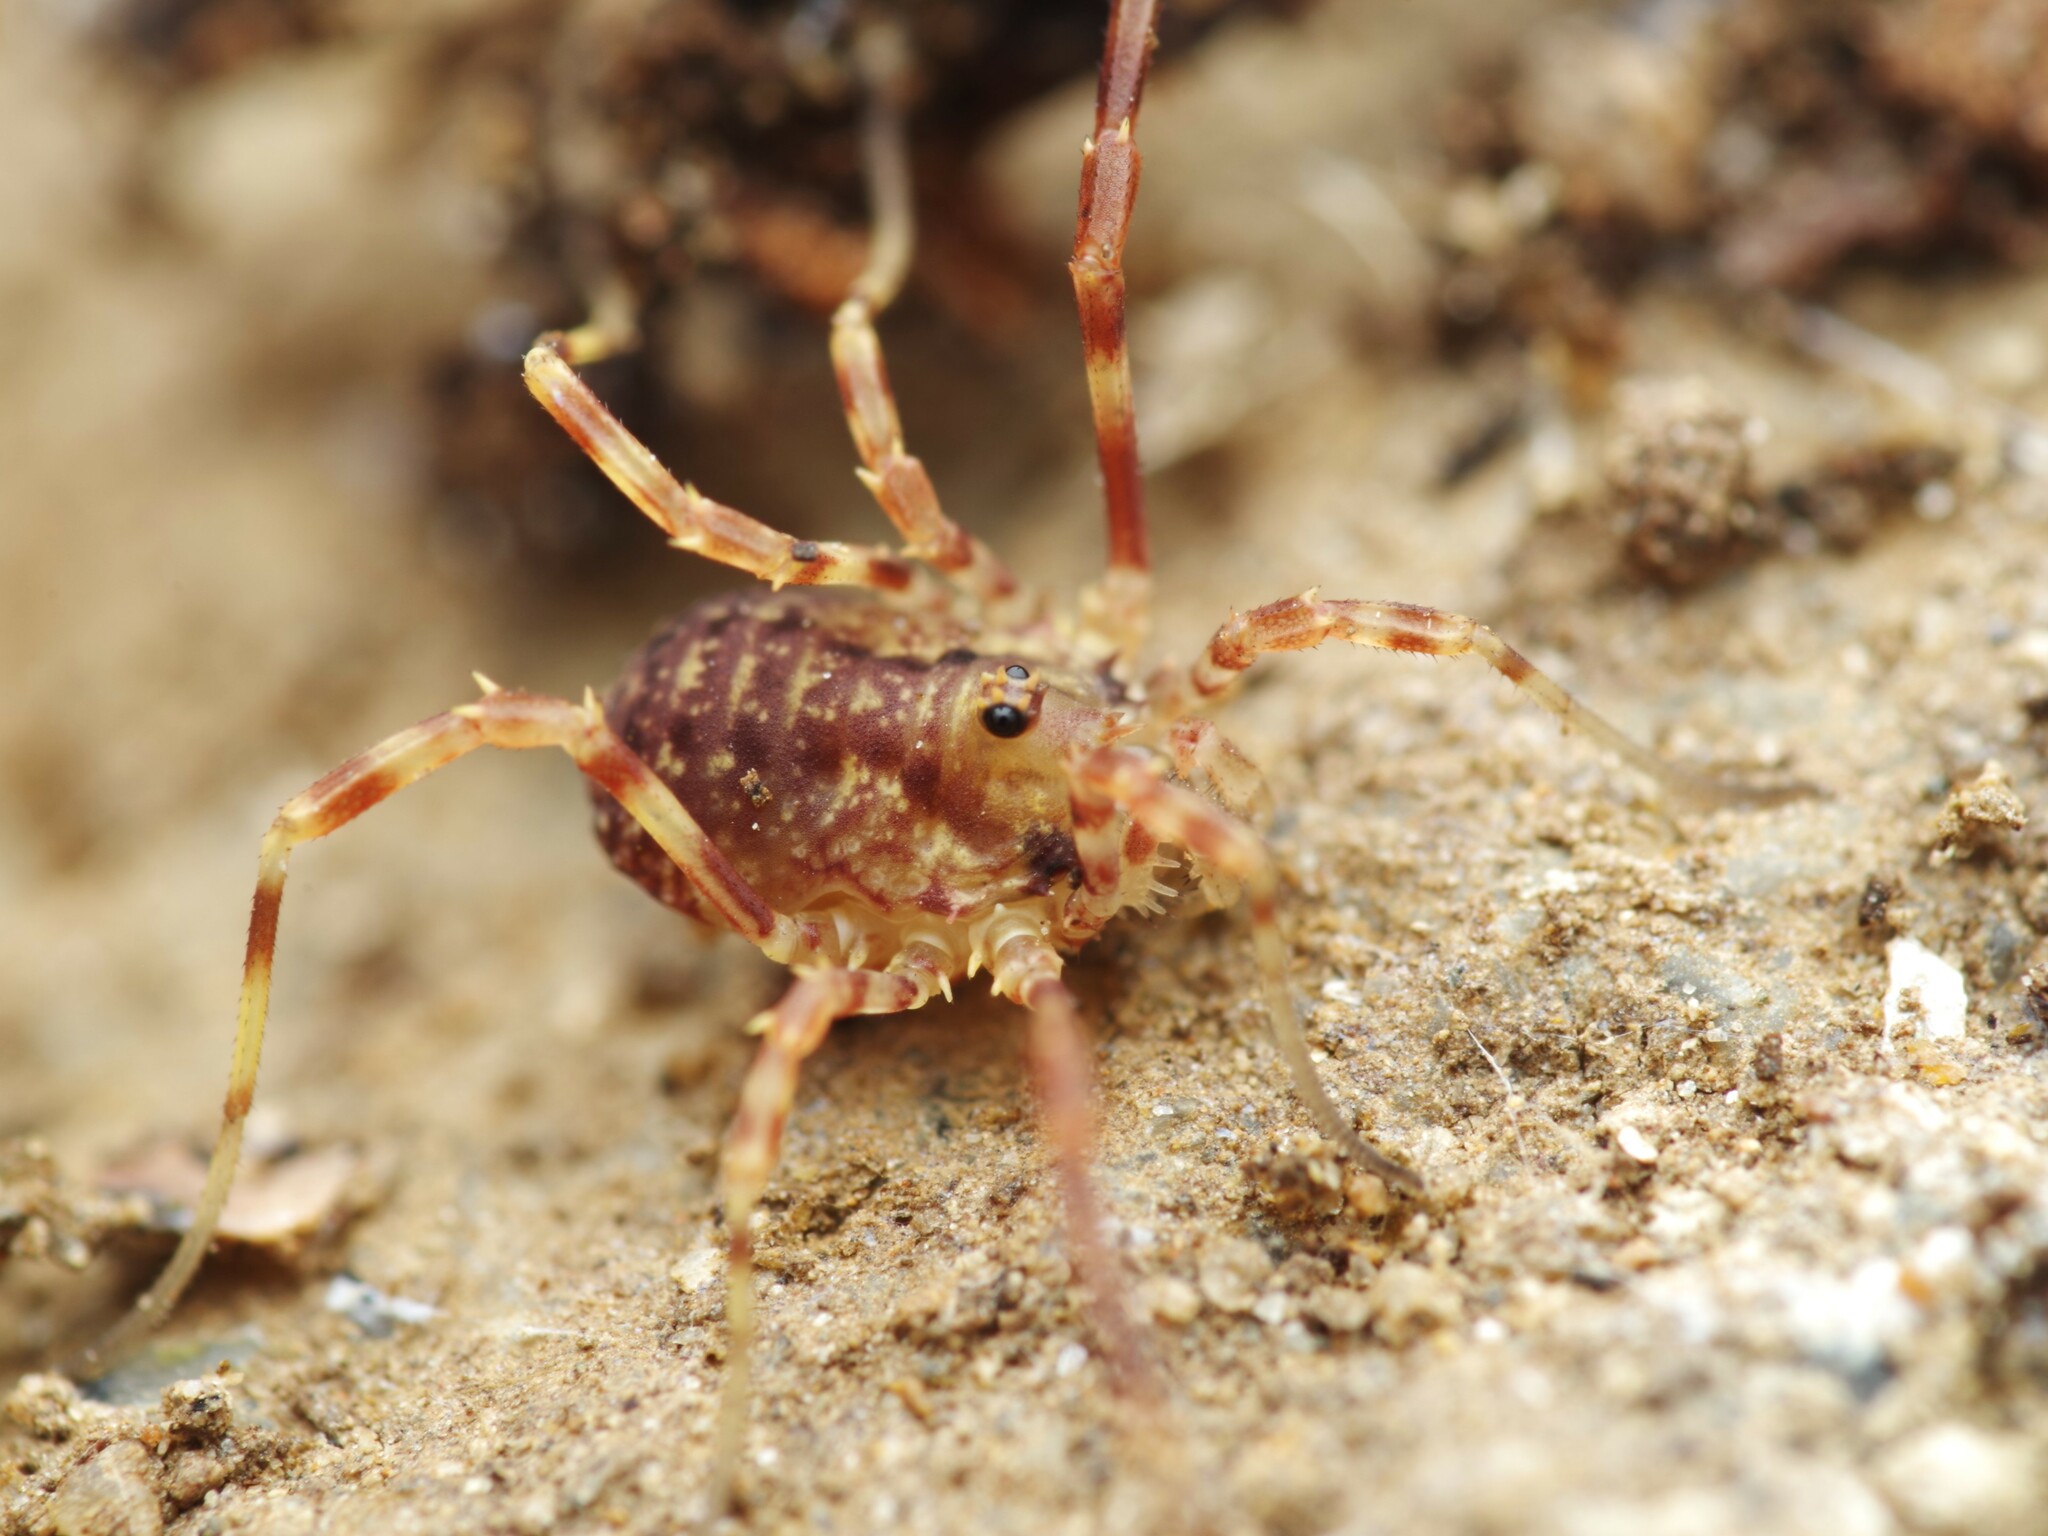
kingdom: Animalia
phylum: Arthropoda
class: Arachnida
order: Opiliones
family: Phalangiidae
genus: Lophopilio
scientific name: Lophopilio palpinalis
